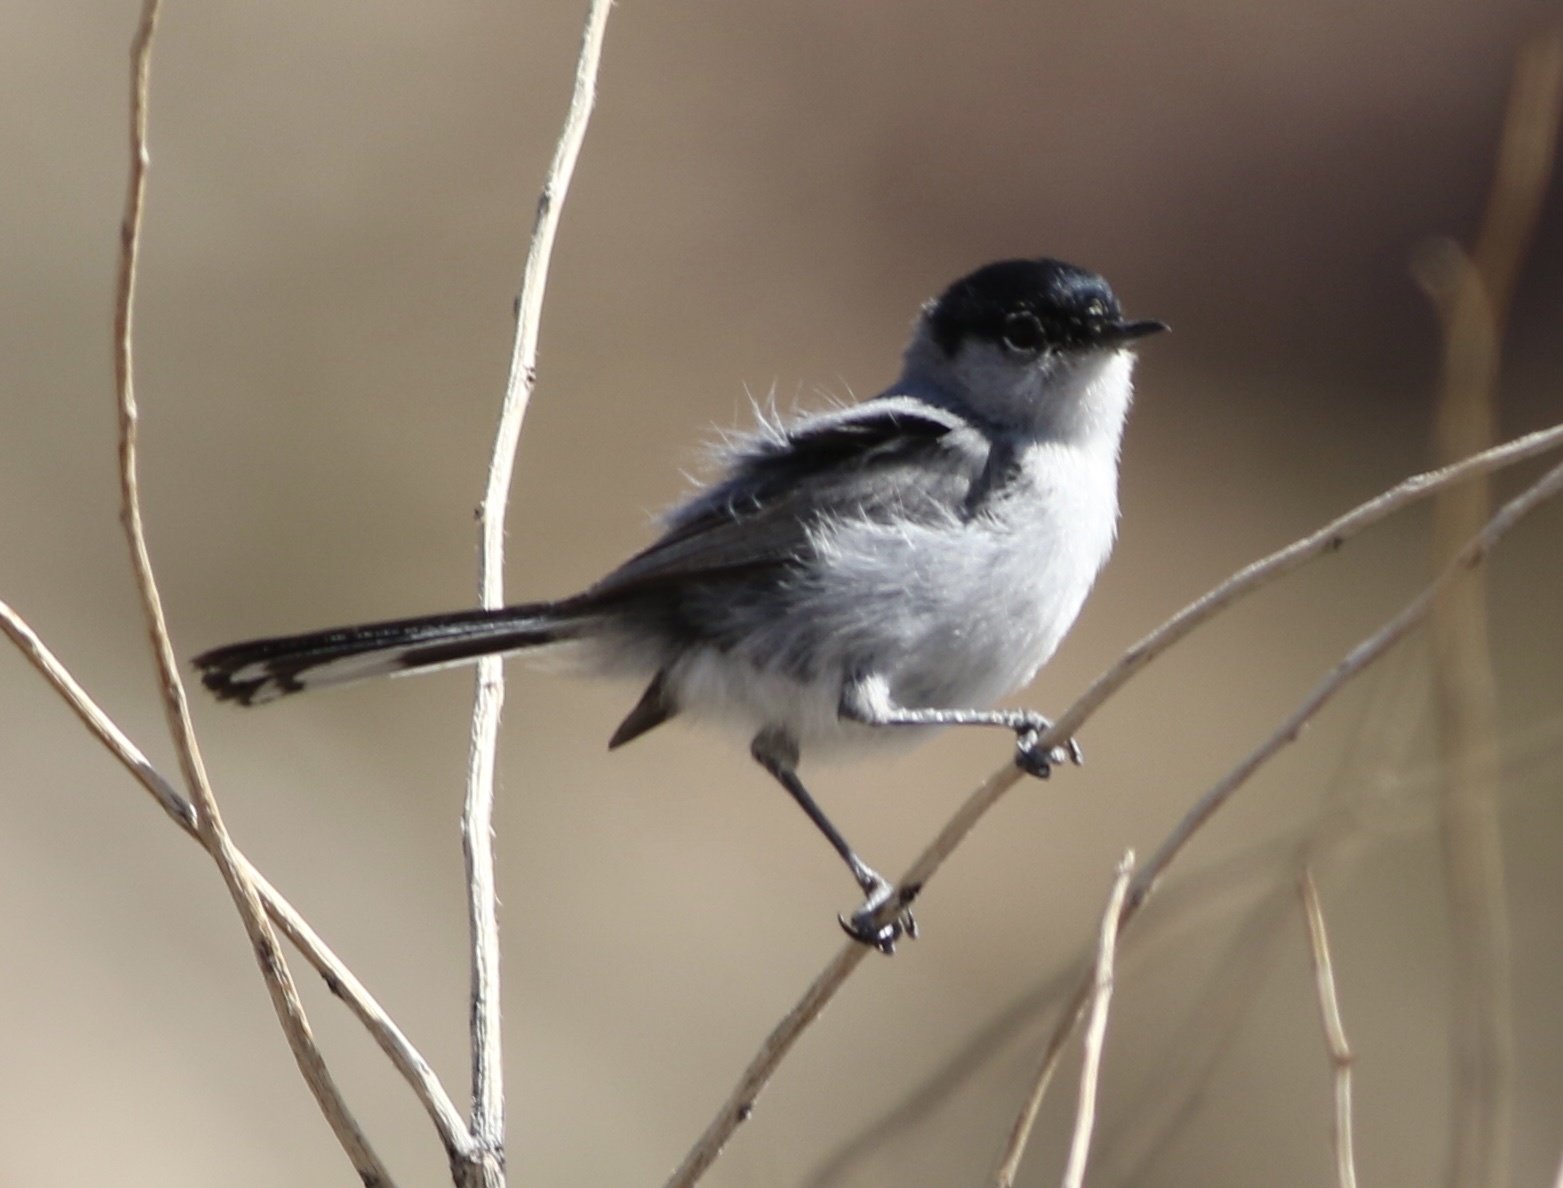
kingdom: Animalia
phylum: Chordata
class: Aves
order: Passeriformes
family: Polioptilidae
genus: Polioptila
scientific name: Polioptila melanura
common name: Black-tailed gnatcatcher
